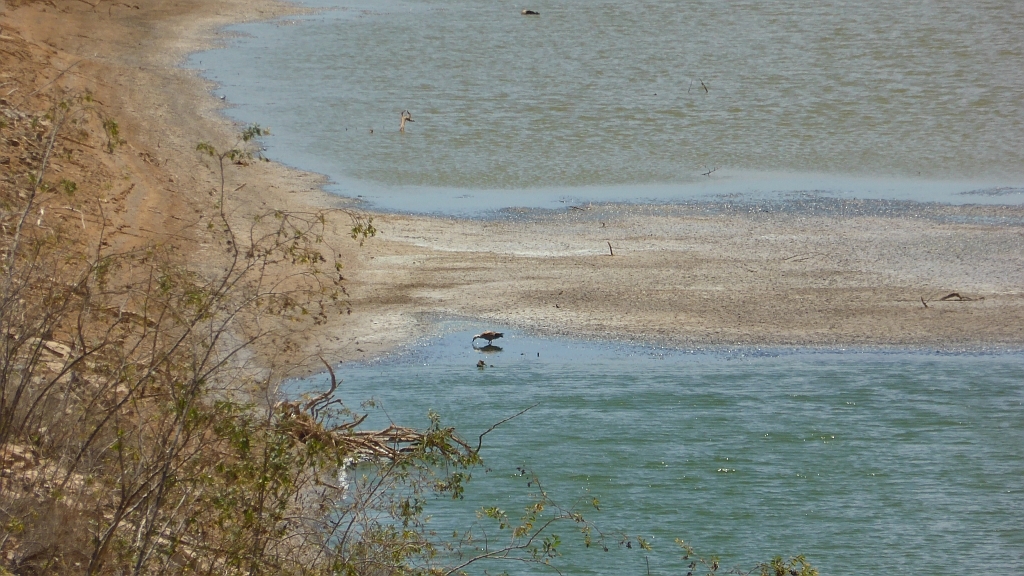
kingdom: Animalia
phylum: Chordata
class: Aves
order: Anseriformes
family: Anatidae
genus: Tadorna
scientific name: Tadorna ferruginea
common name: Ruddy shelduck
